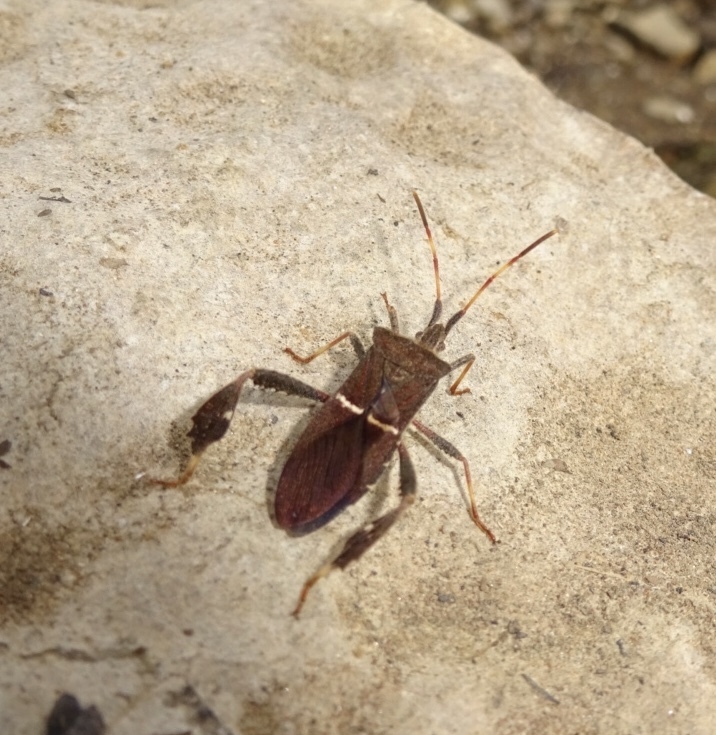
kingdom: Animalia
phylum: Arthropoda
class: Insecta
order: Hemiptera
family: Coreidae
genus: Leptoglossus
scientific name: Leptoglossus phyllopus
